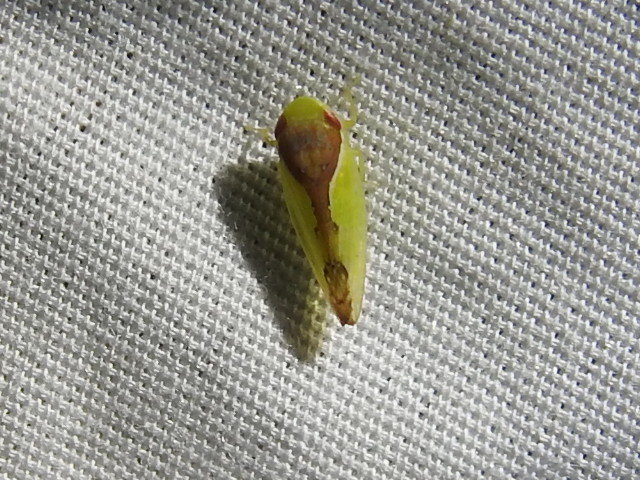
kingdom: Animalia
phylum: Arthropoda
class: Insecta
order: Hemiptera
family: Cicadellidae
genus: Omansobara ing
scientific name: Omansobara ing Omansobara palliolata
